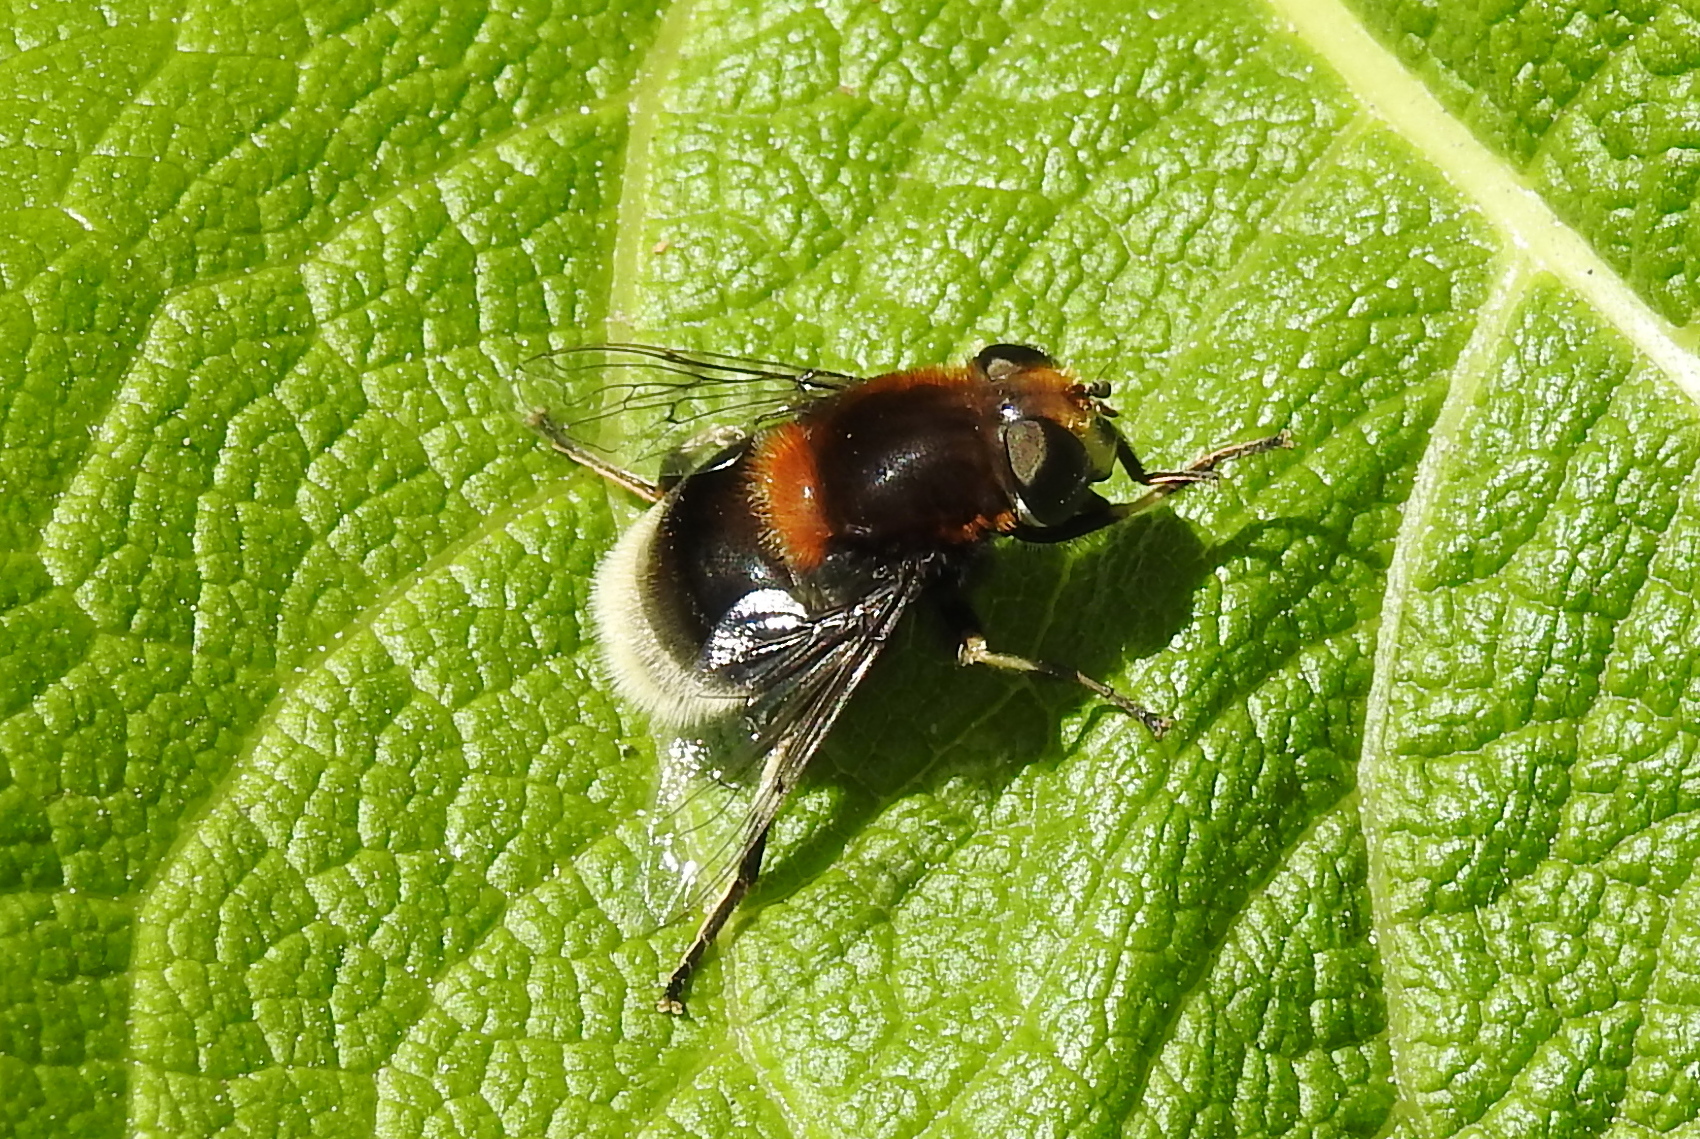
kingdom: Animalia
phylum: Arthropoda
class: Insecta
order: Diptera
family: Syrphidae
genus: Eristalis
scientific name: Eristalis intricaria
